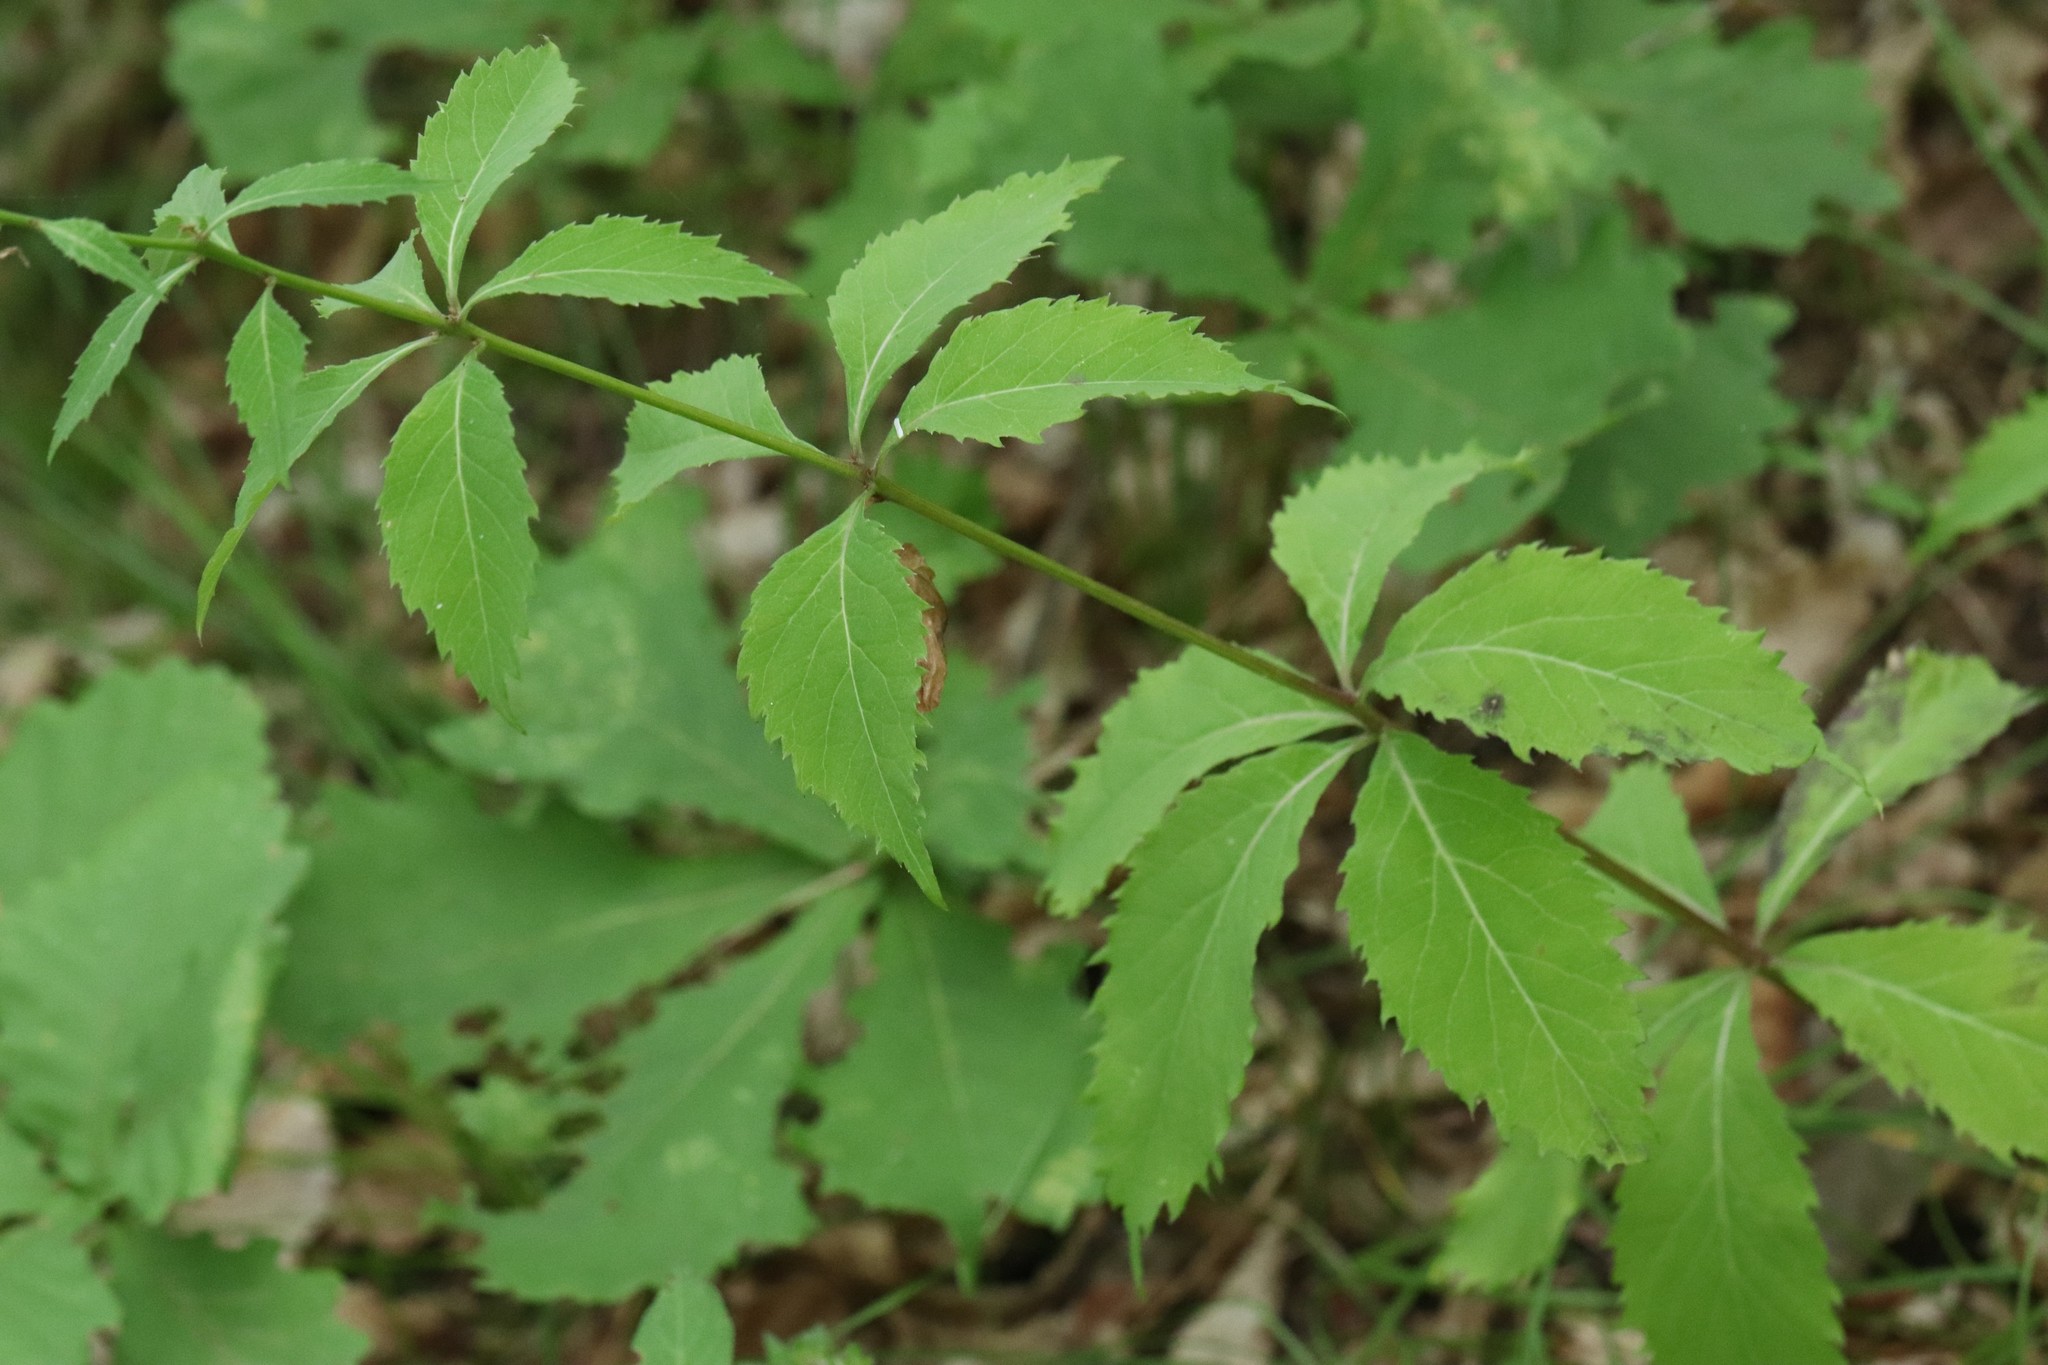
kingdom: Plantae
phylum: Tracheophyta
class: Magnoliopsida
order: Asterales
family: Campanulaceae
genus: Adenophora
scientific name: Adenophora pereskiifolia
